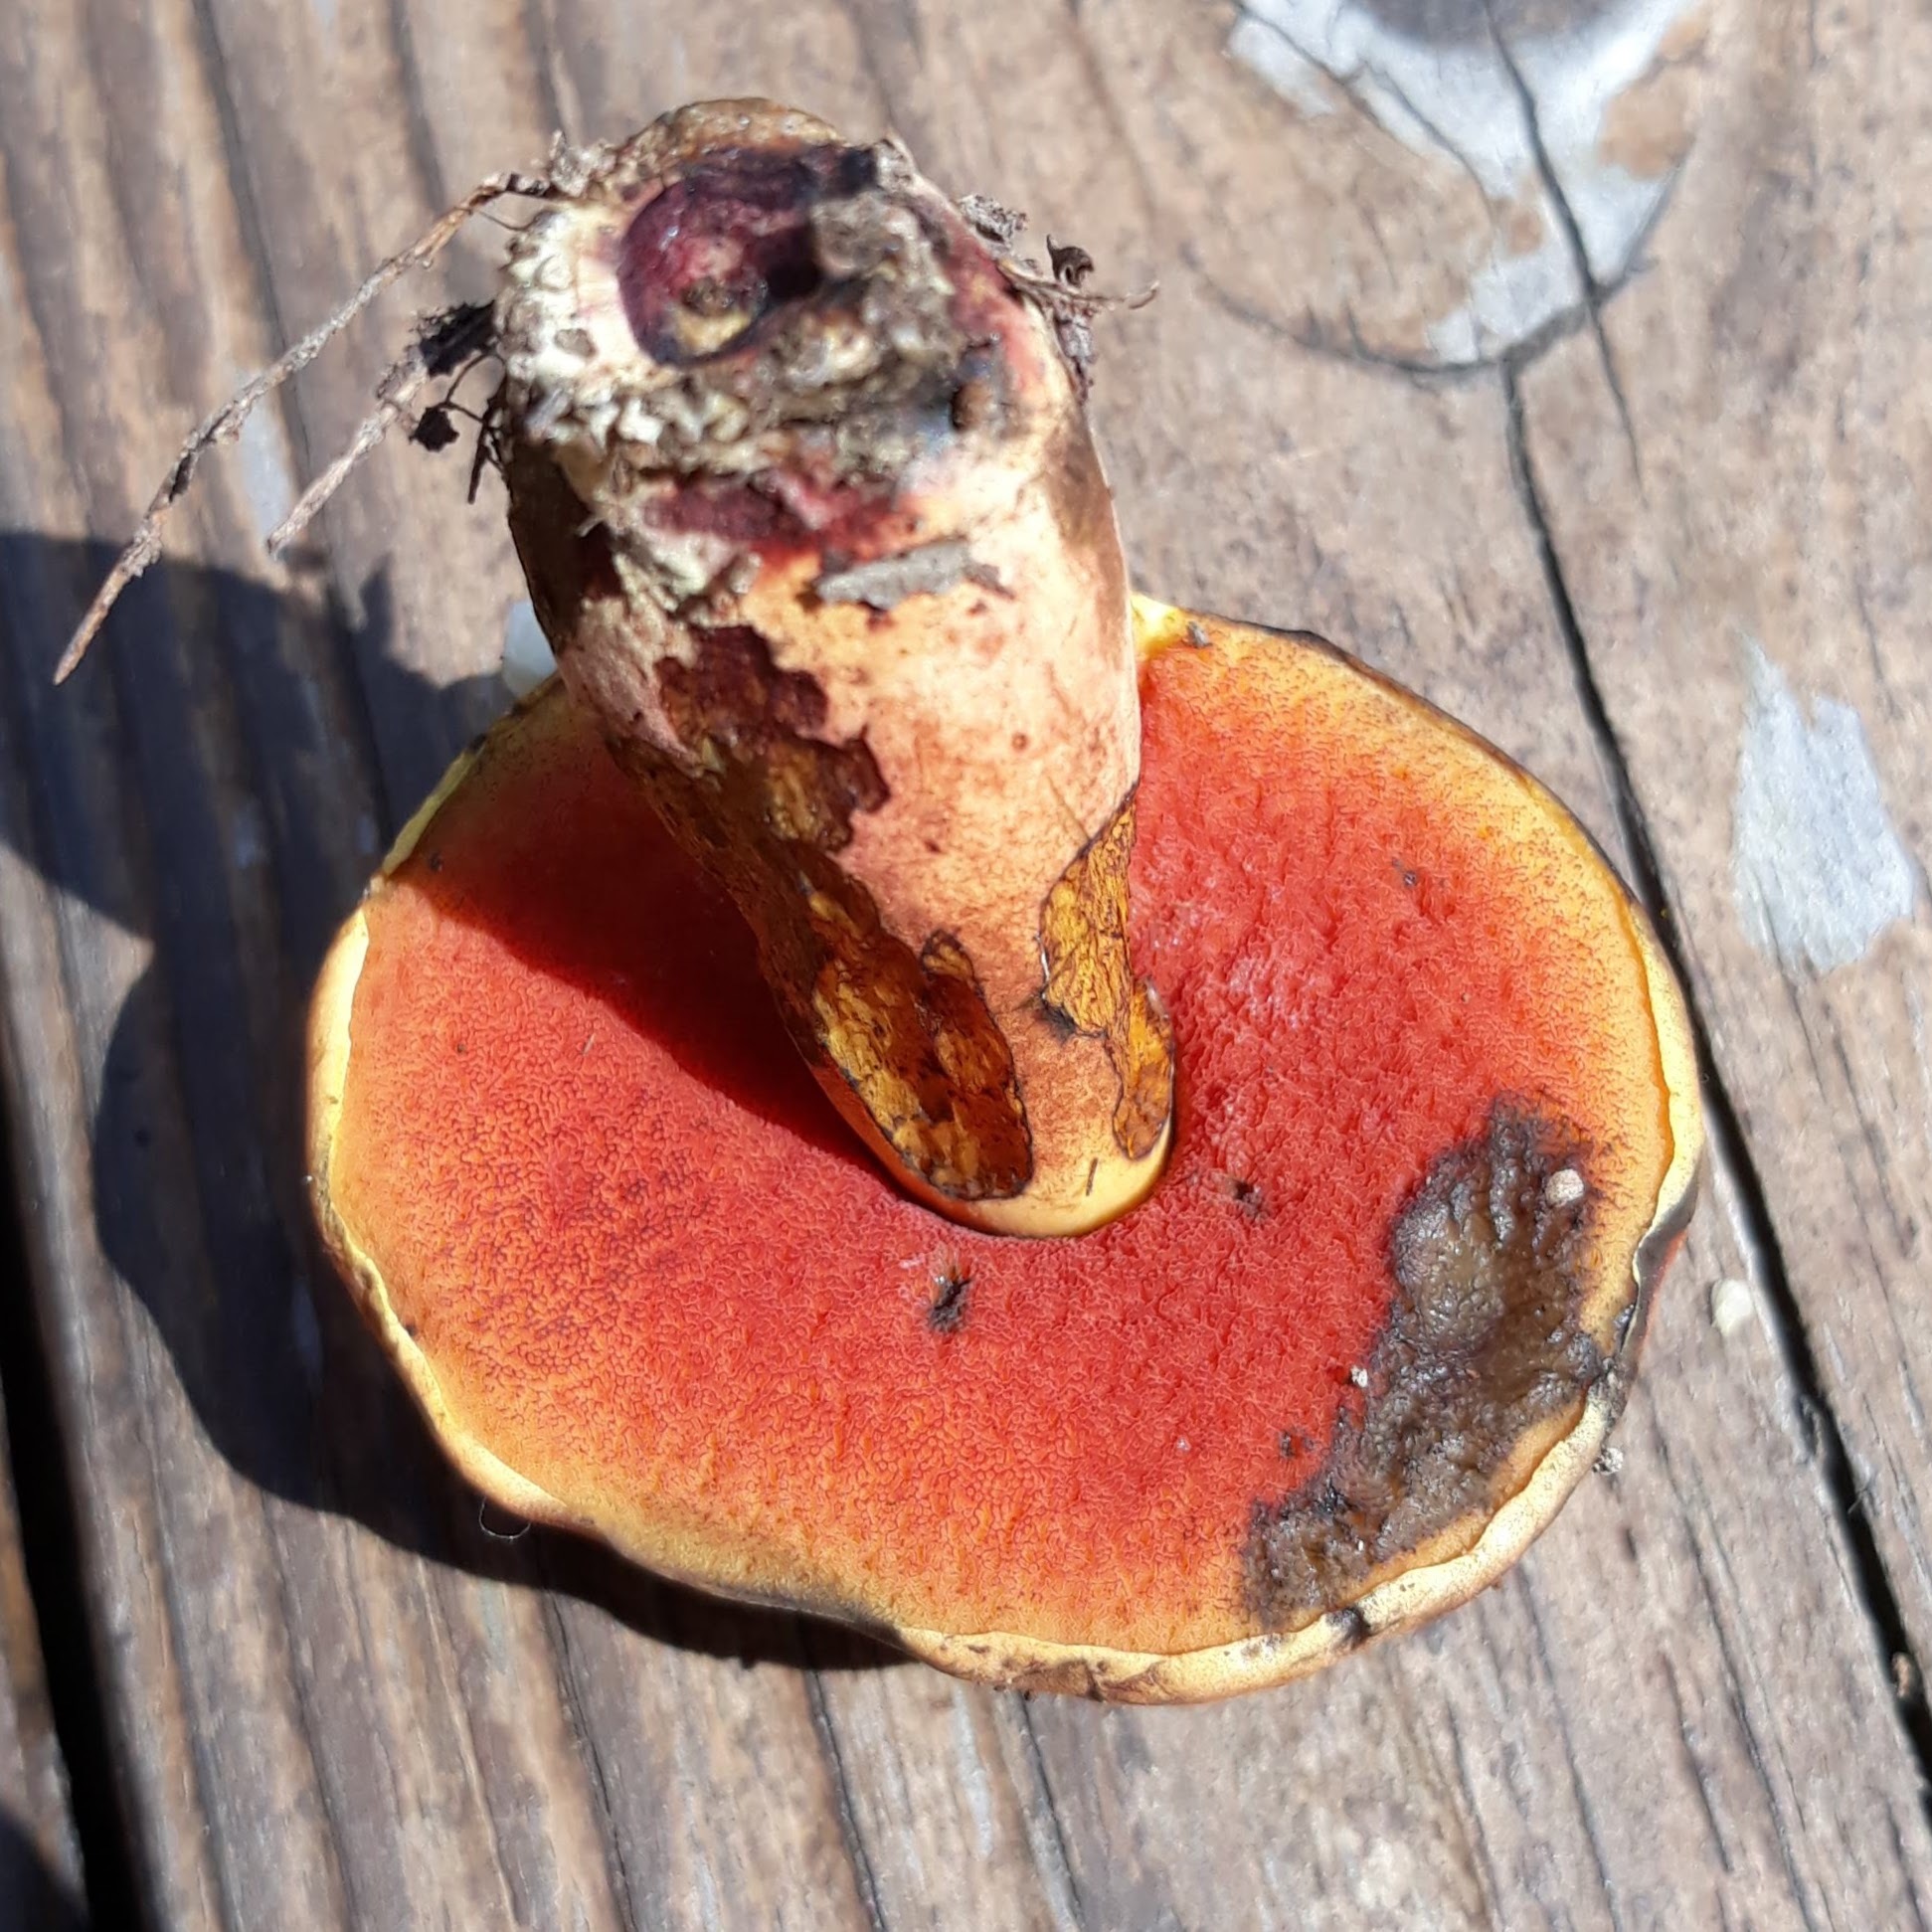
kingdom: Fungi
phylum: Basidiomycota
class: Agaricomycetes
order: Boletales
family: Boletaceae
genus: Boletus
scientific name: Boletus subvelutipes
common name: Red-mouth bolete
